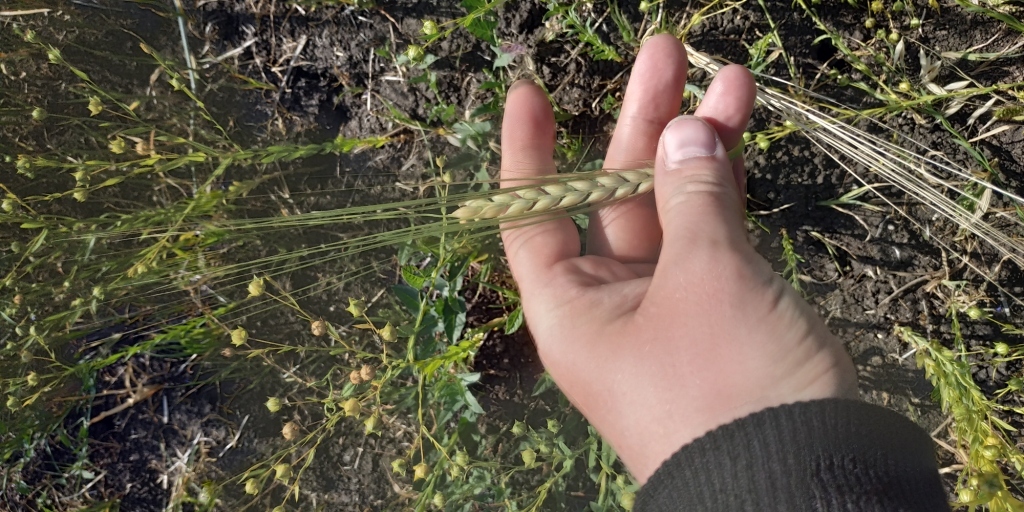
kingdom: Plantae
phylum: Tracheophyta
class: Liliopsida
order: Poales
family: Poaceae
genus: Hordeum
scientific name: Hordeum distichon
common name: Two-rowed barley
